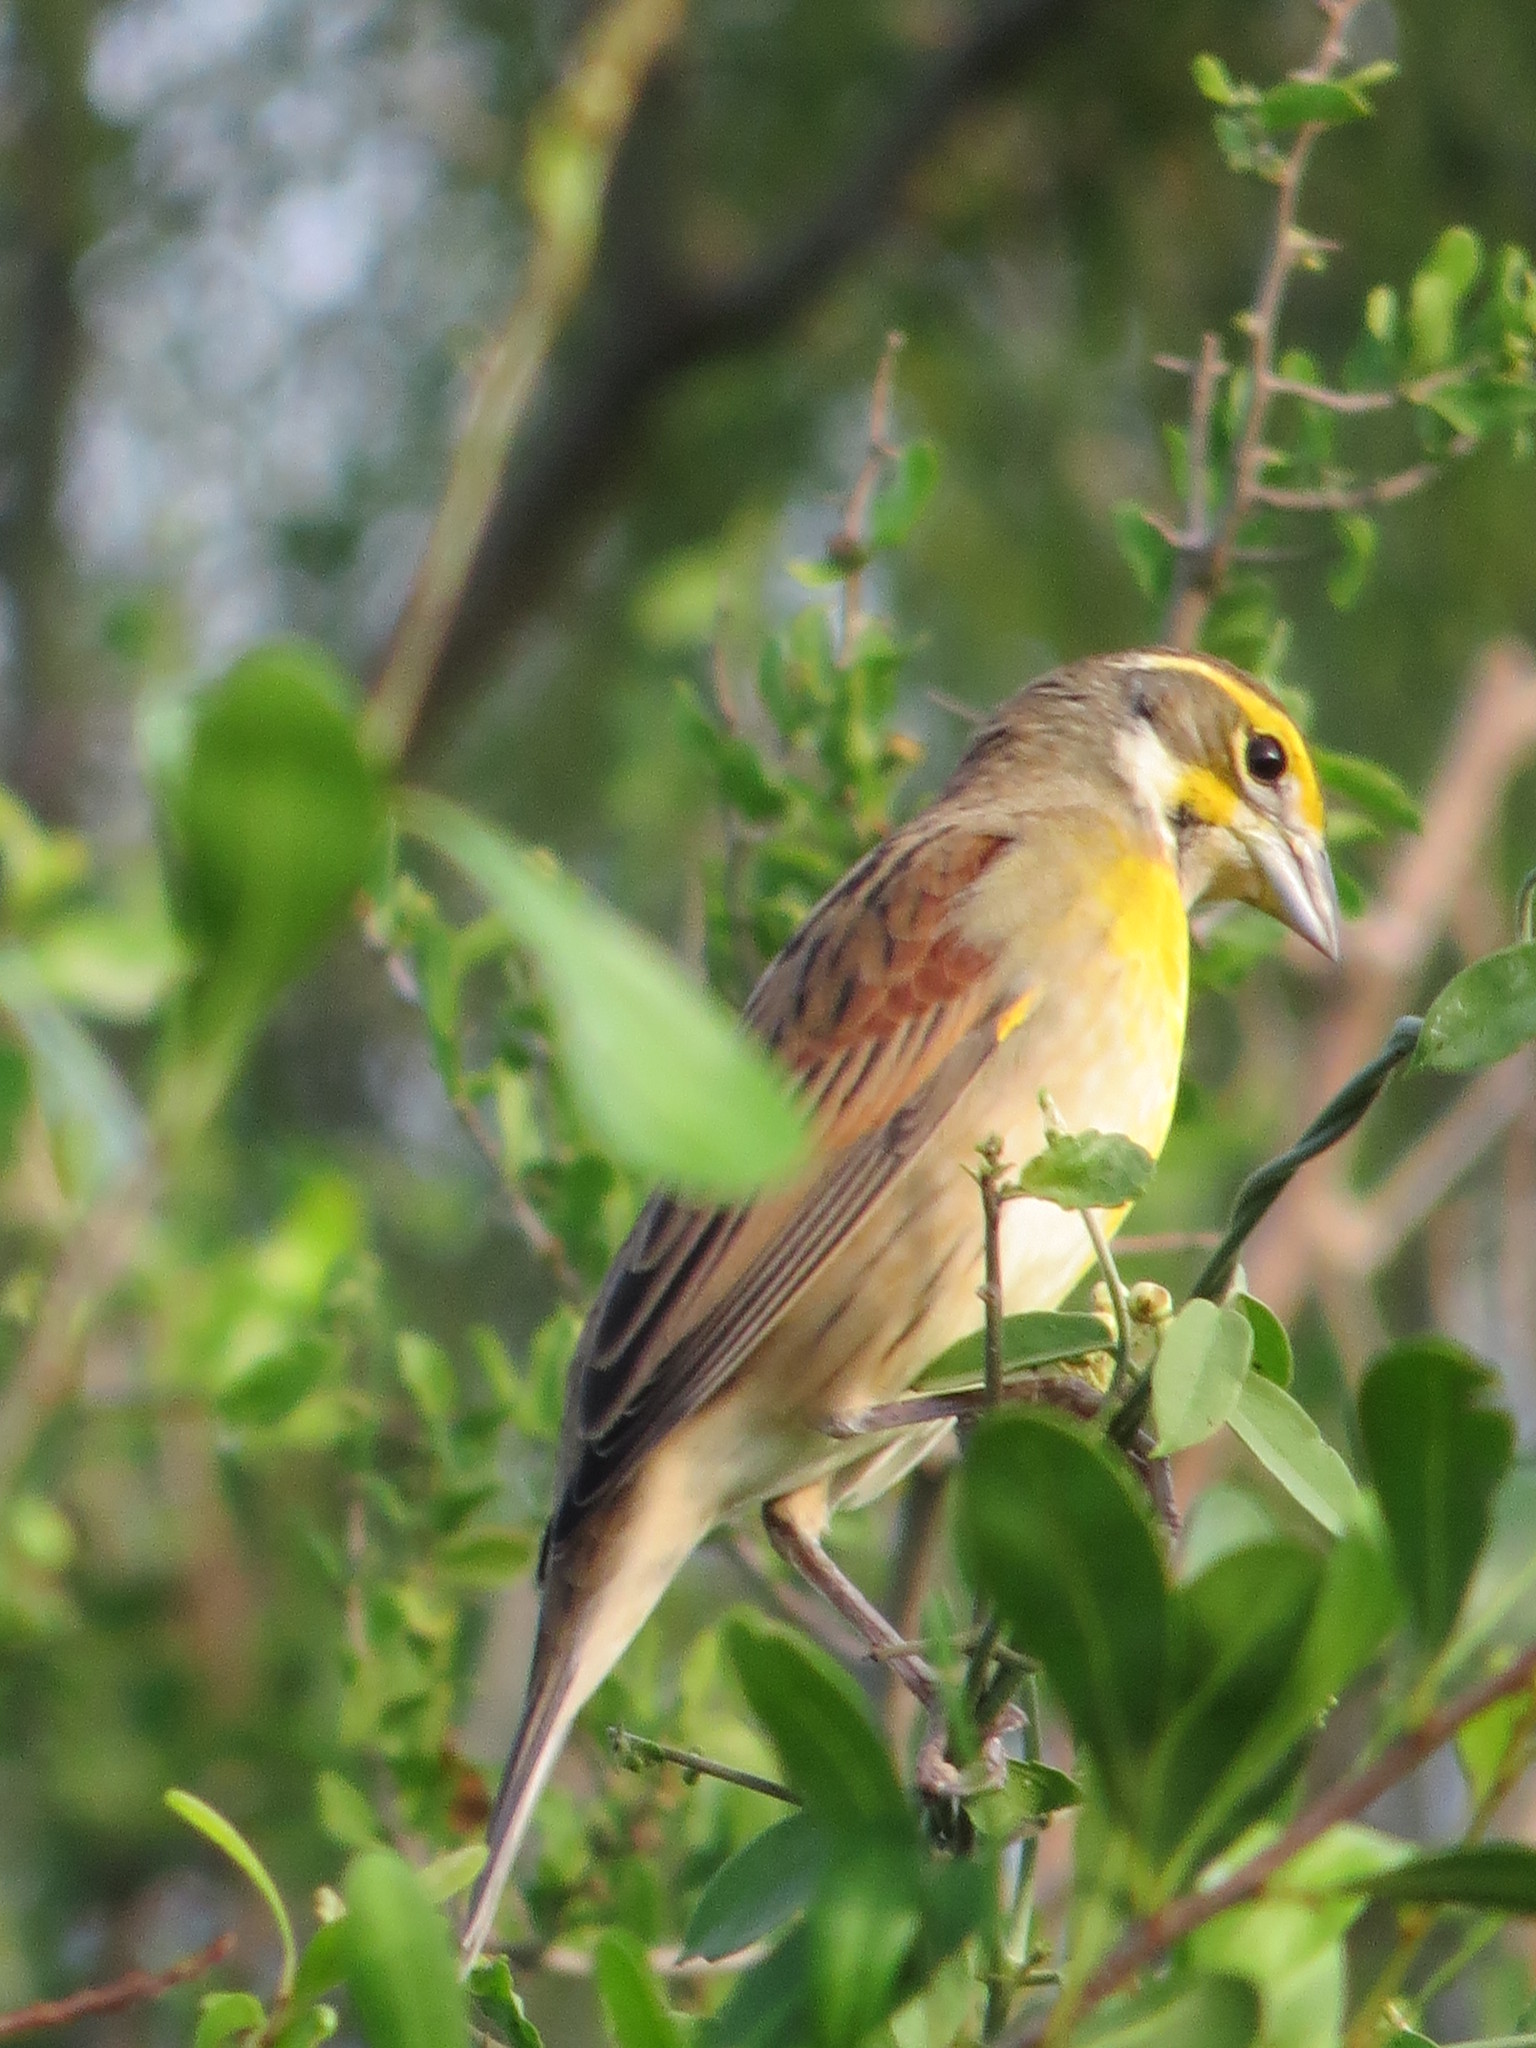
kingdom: Animalia
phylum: Chordata
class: Aves
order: Passeriformes
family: Cardinalidae
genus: Spiza
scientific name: Spiza americana
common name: Dickcissel
